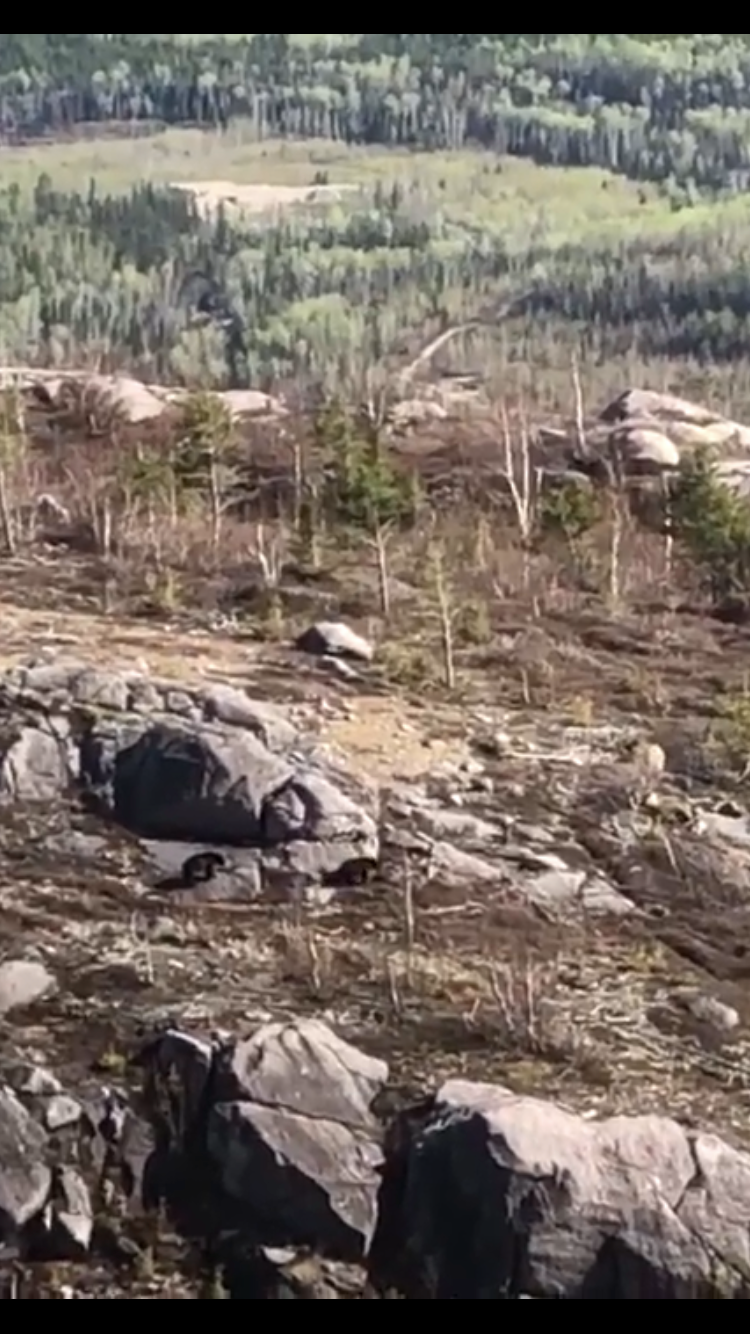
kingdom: Animalia
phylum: Chordata
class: Mammalia
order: Carnivora
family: Ursidae
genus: Ursus
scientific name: Ursus americanus
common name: American black bear
